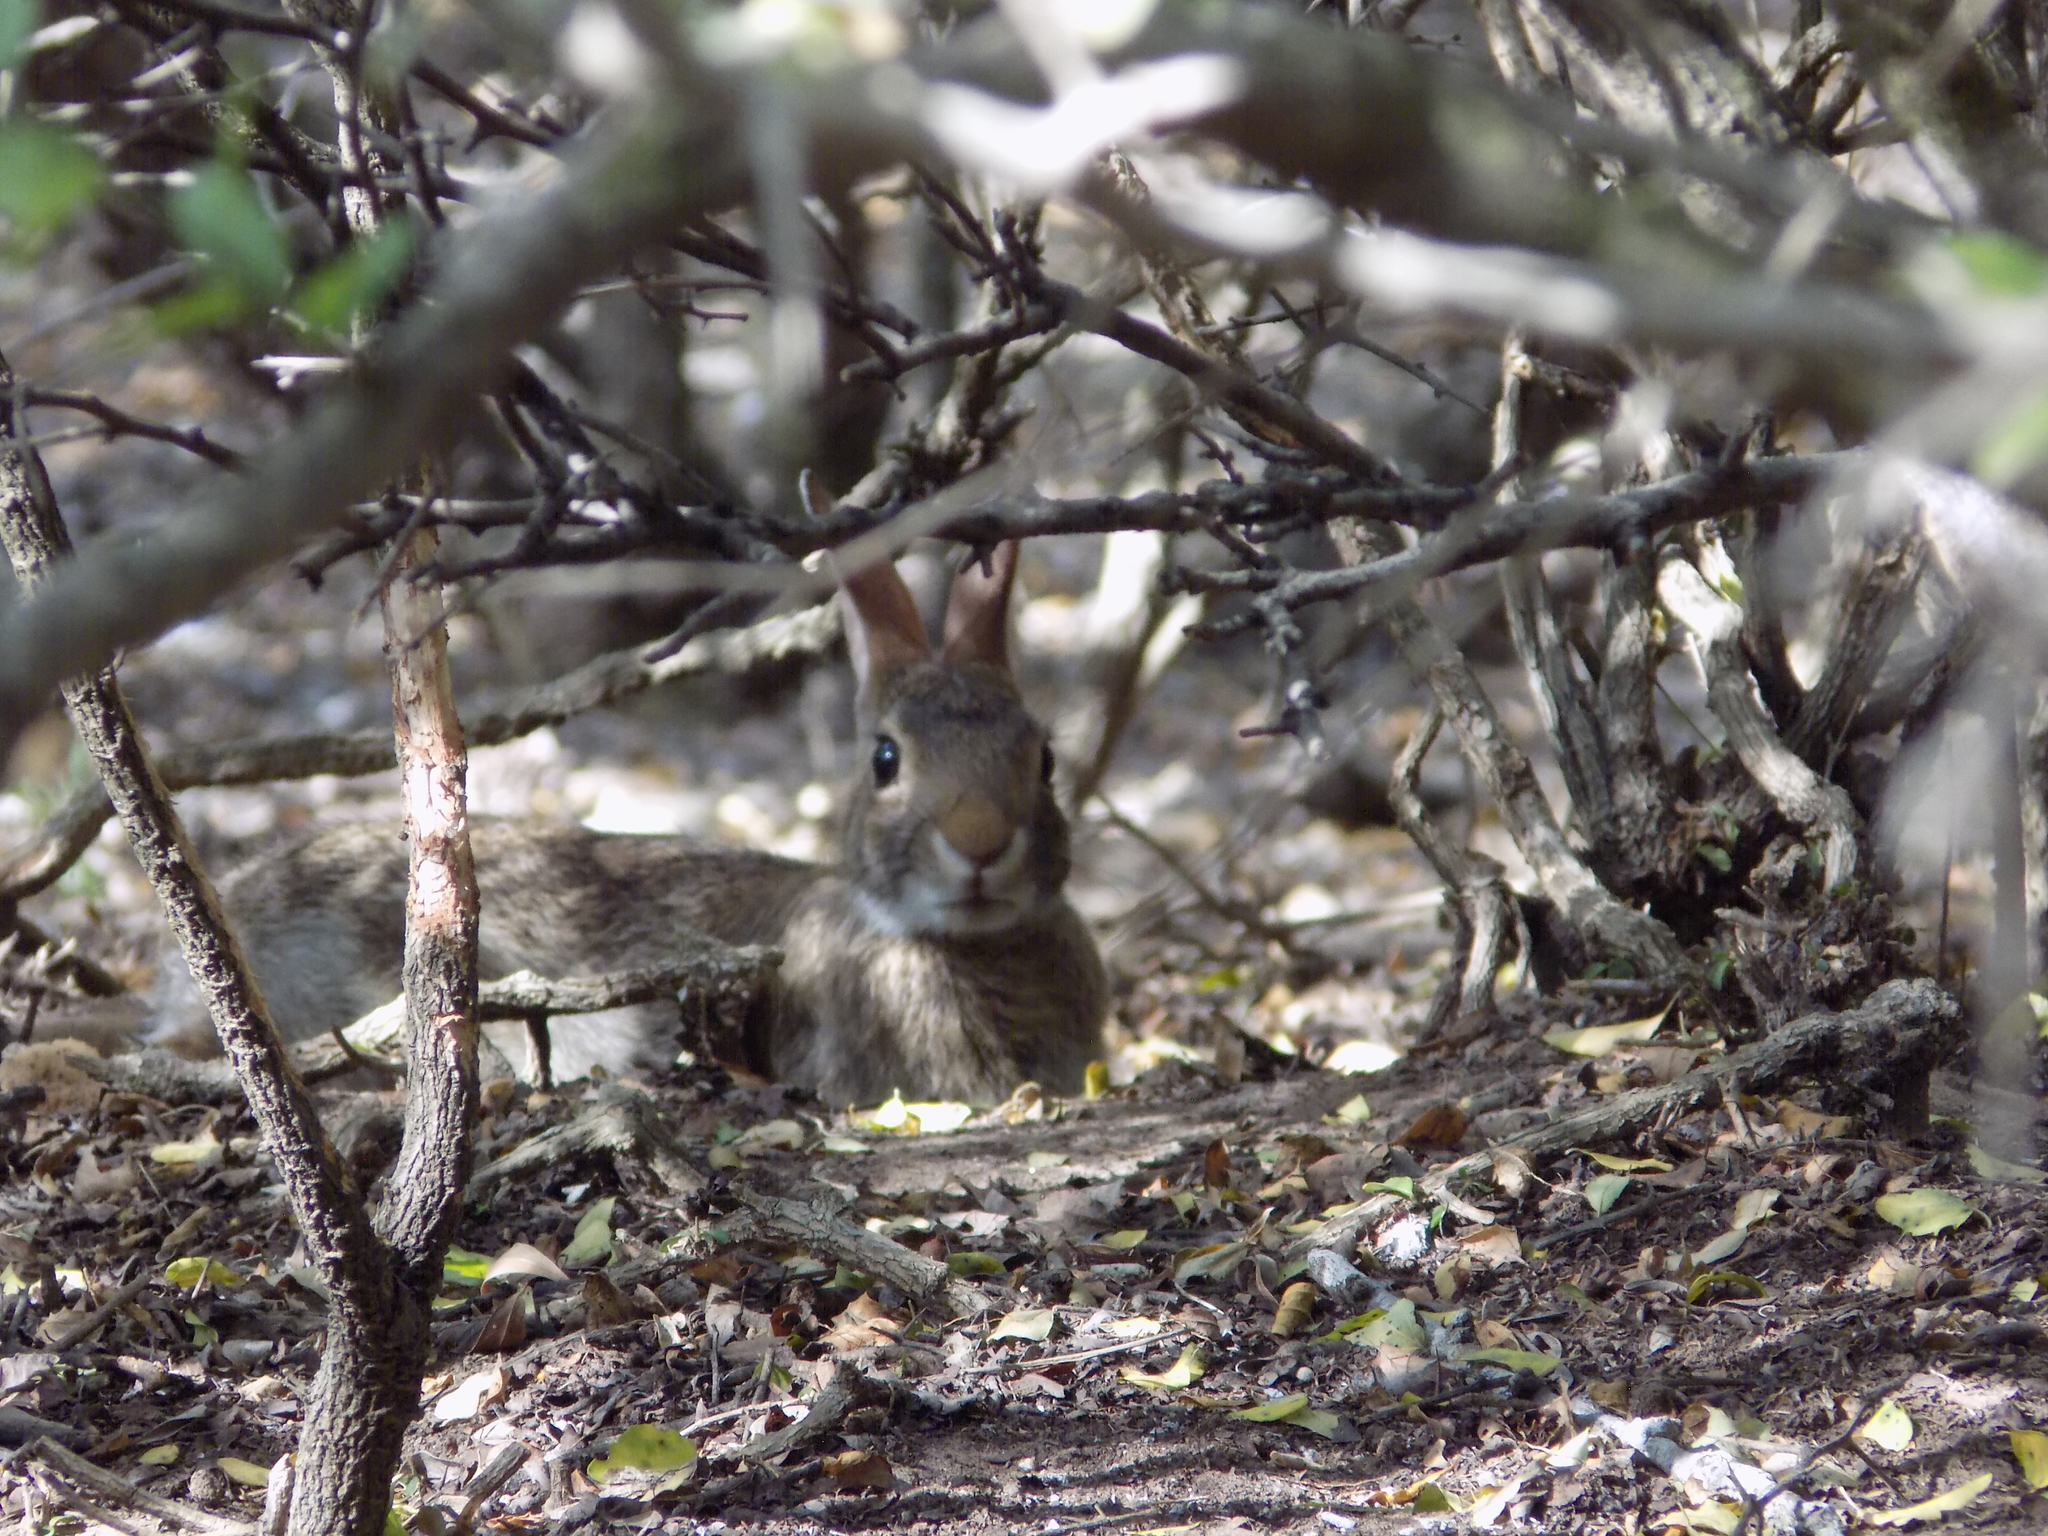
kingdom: Animalia
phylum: Chordata
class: Mammalia
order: Lagomorpha
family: Leporidae
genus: Sylvilagus
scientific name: Sylvilagus floridanus
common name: Eastern cottontail
